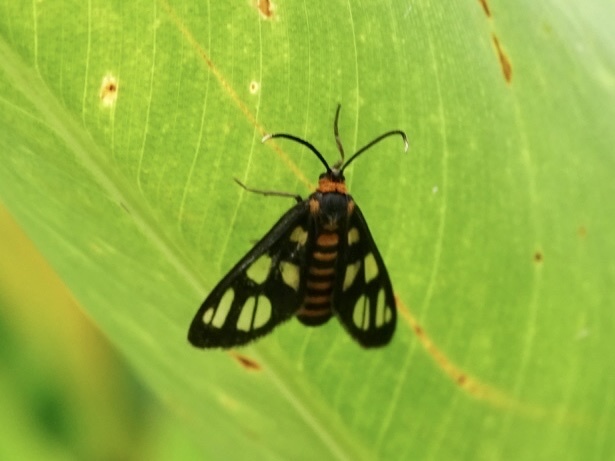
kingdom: Animalia
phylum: Arthropoda
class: Insecta
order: Lepidoptera
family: Erebidae
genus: Amata
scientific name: Amata huebneri
